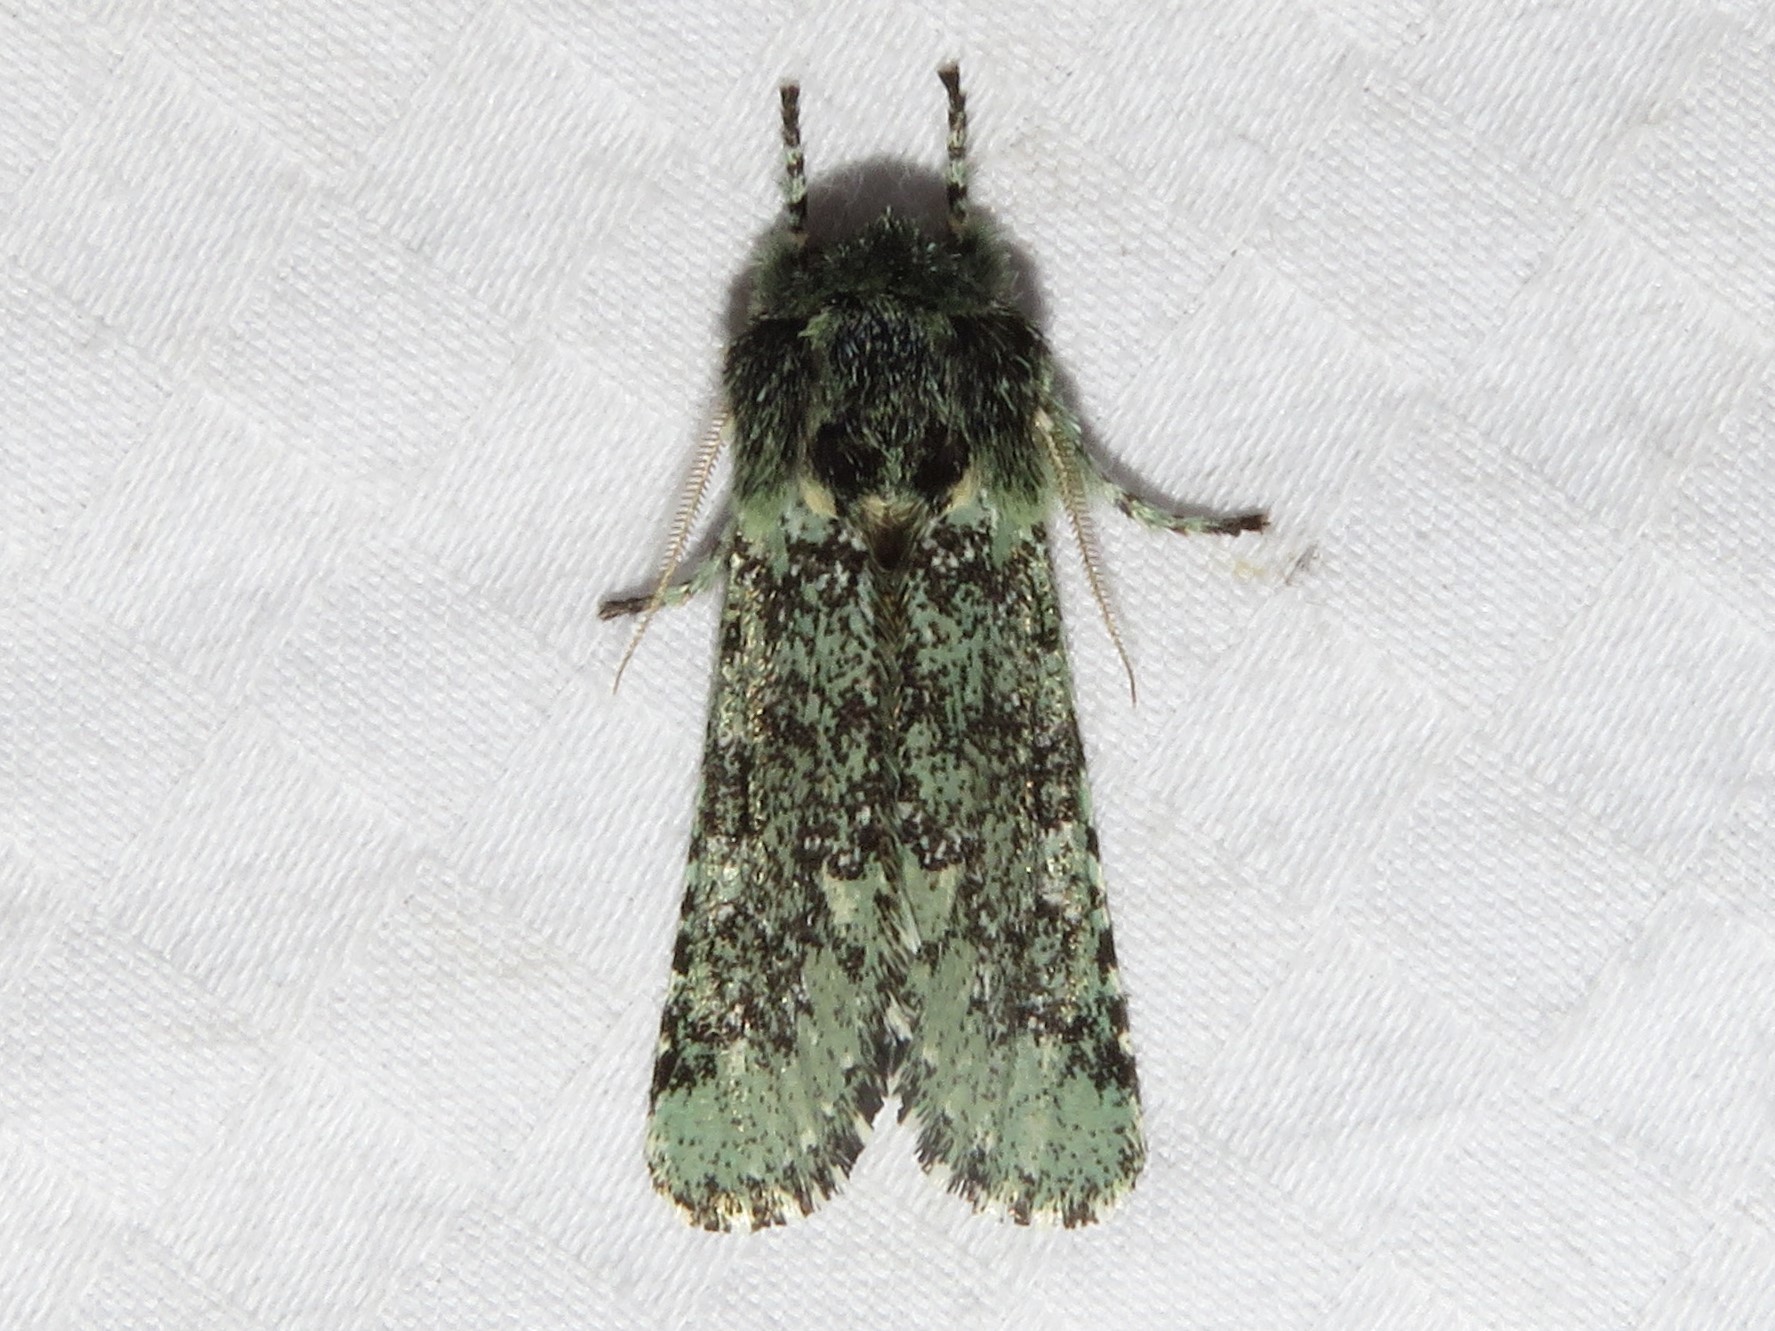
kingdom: Animalia
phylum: Arthropoda
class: Insecta
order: Lepidoptera
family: Noctuidae
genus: Feralia
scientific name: Feralia major
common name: Major sallow
